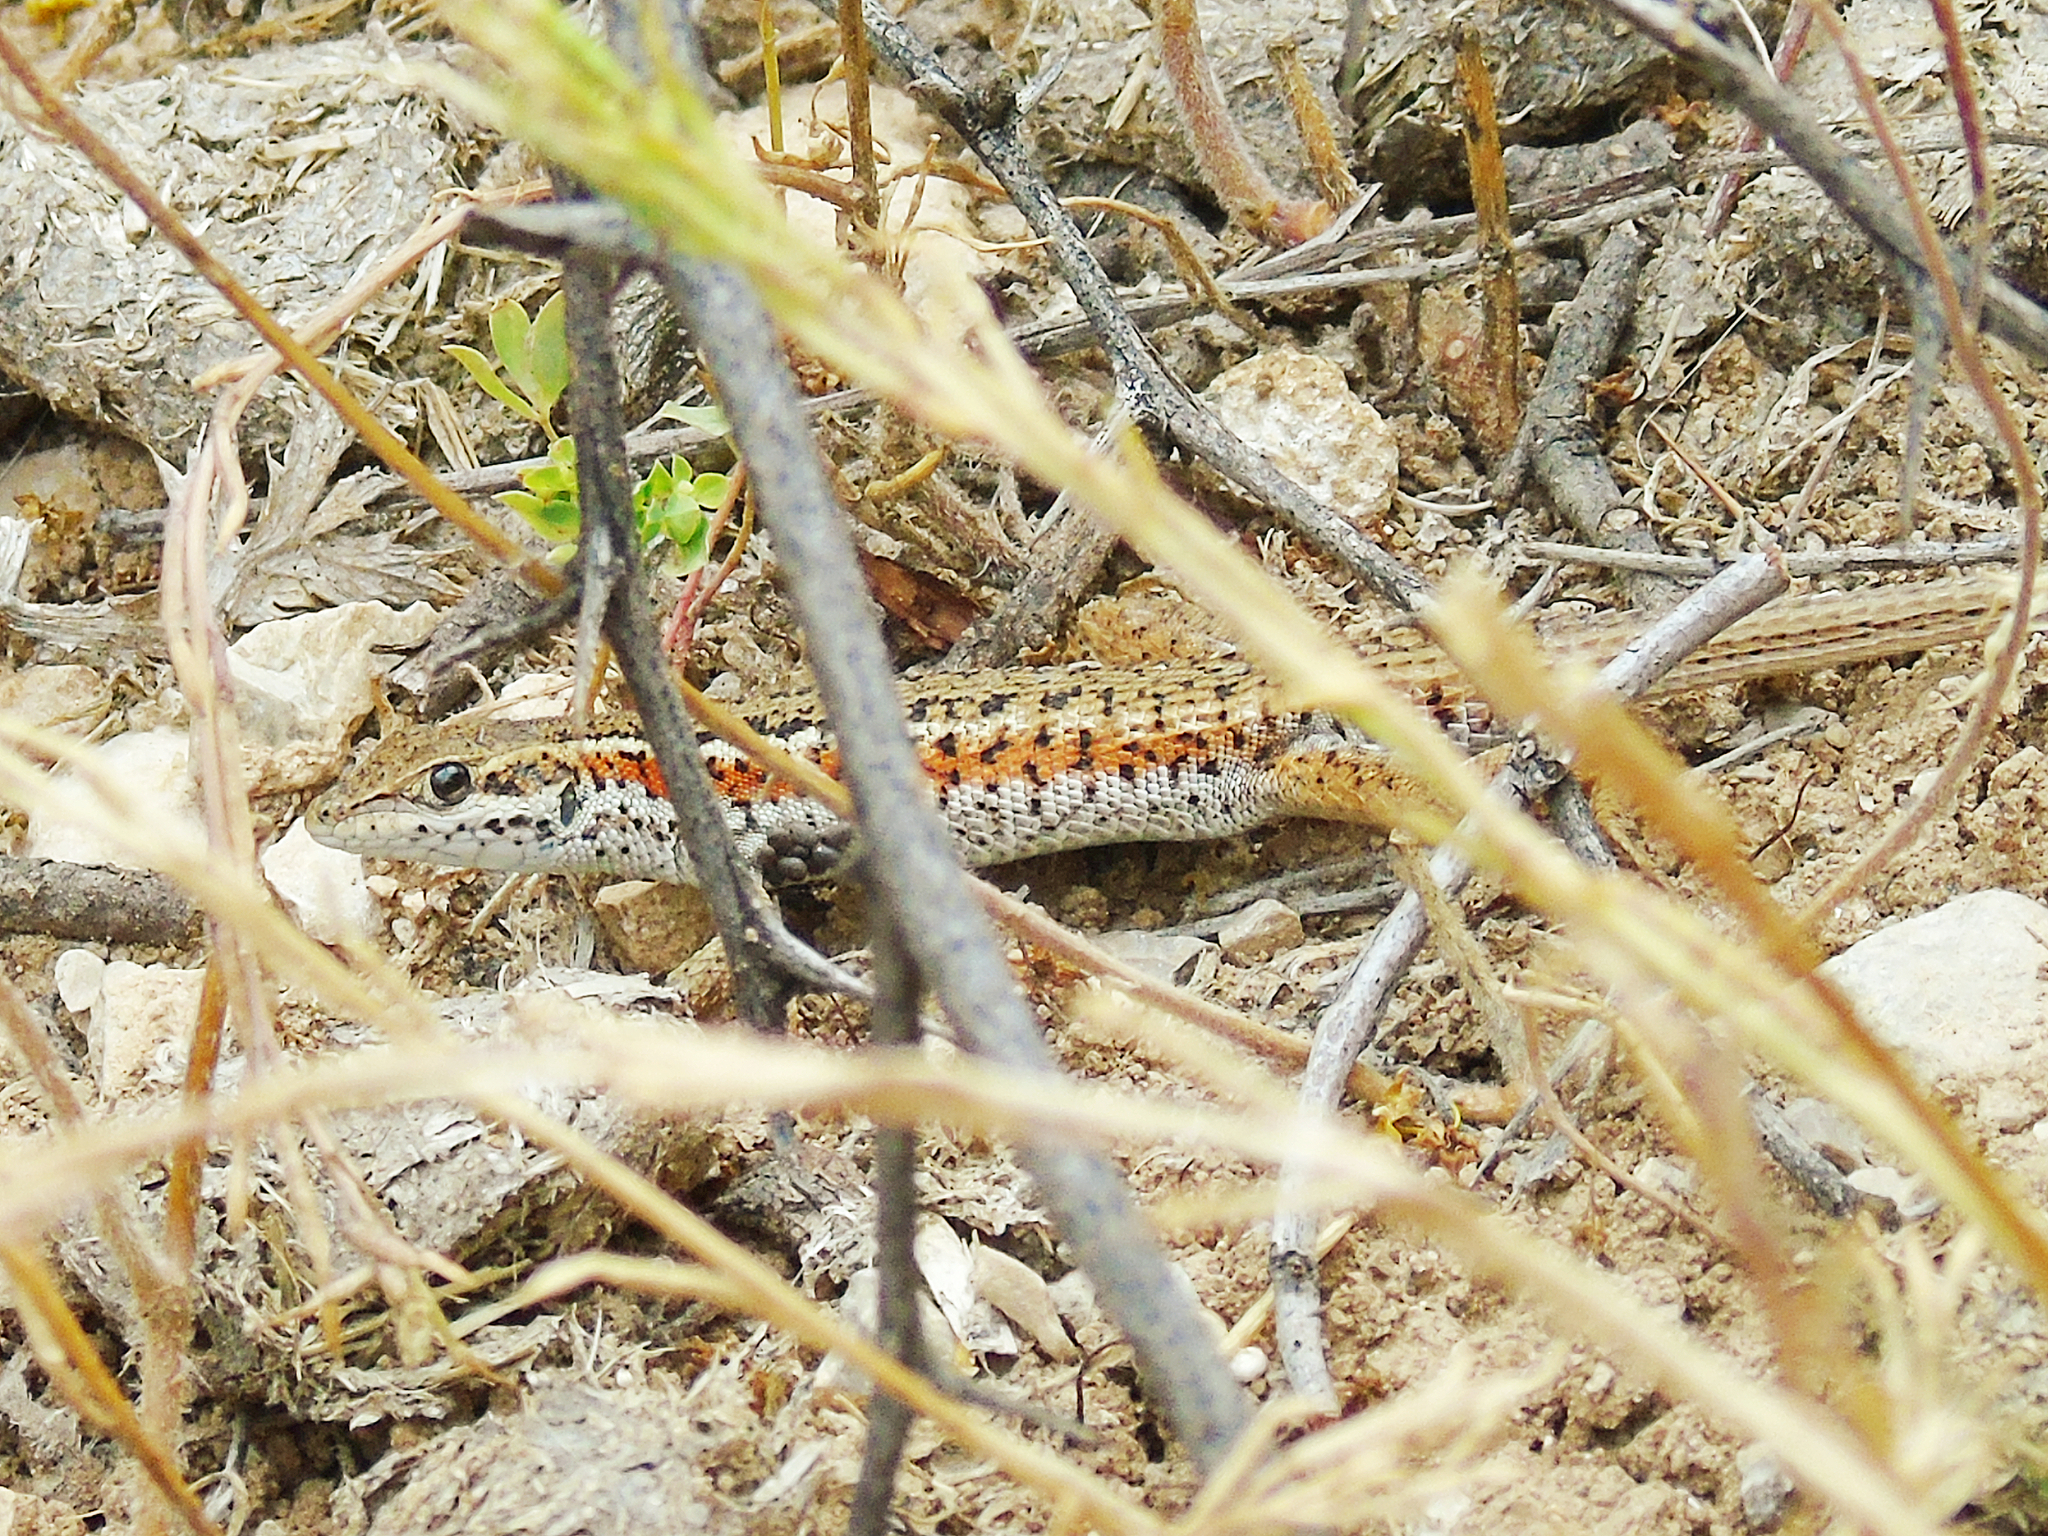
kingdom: Animalia
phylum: Chordata
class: Squamata
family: Lacertidae
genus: Ophisops
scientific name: Ophisops elegans
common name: Snake-eyed lizard
